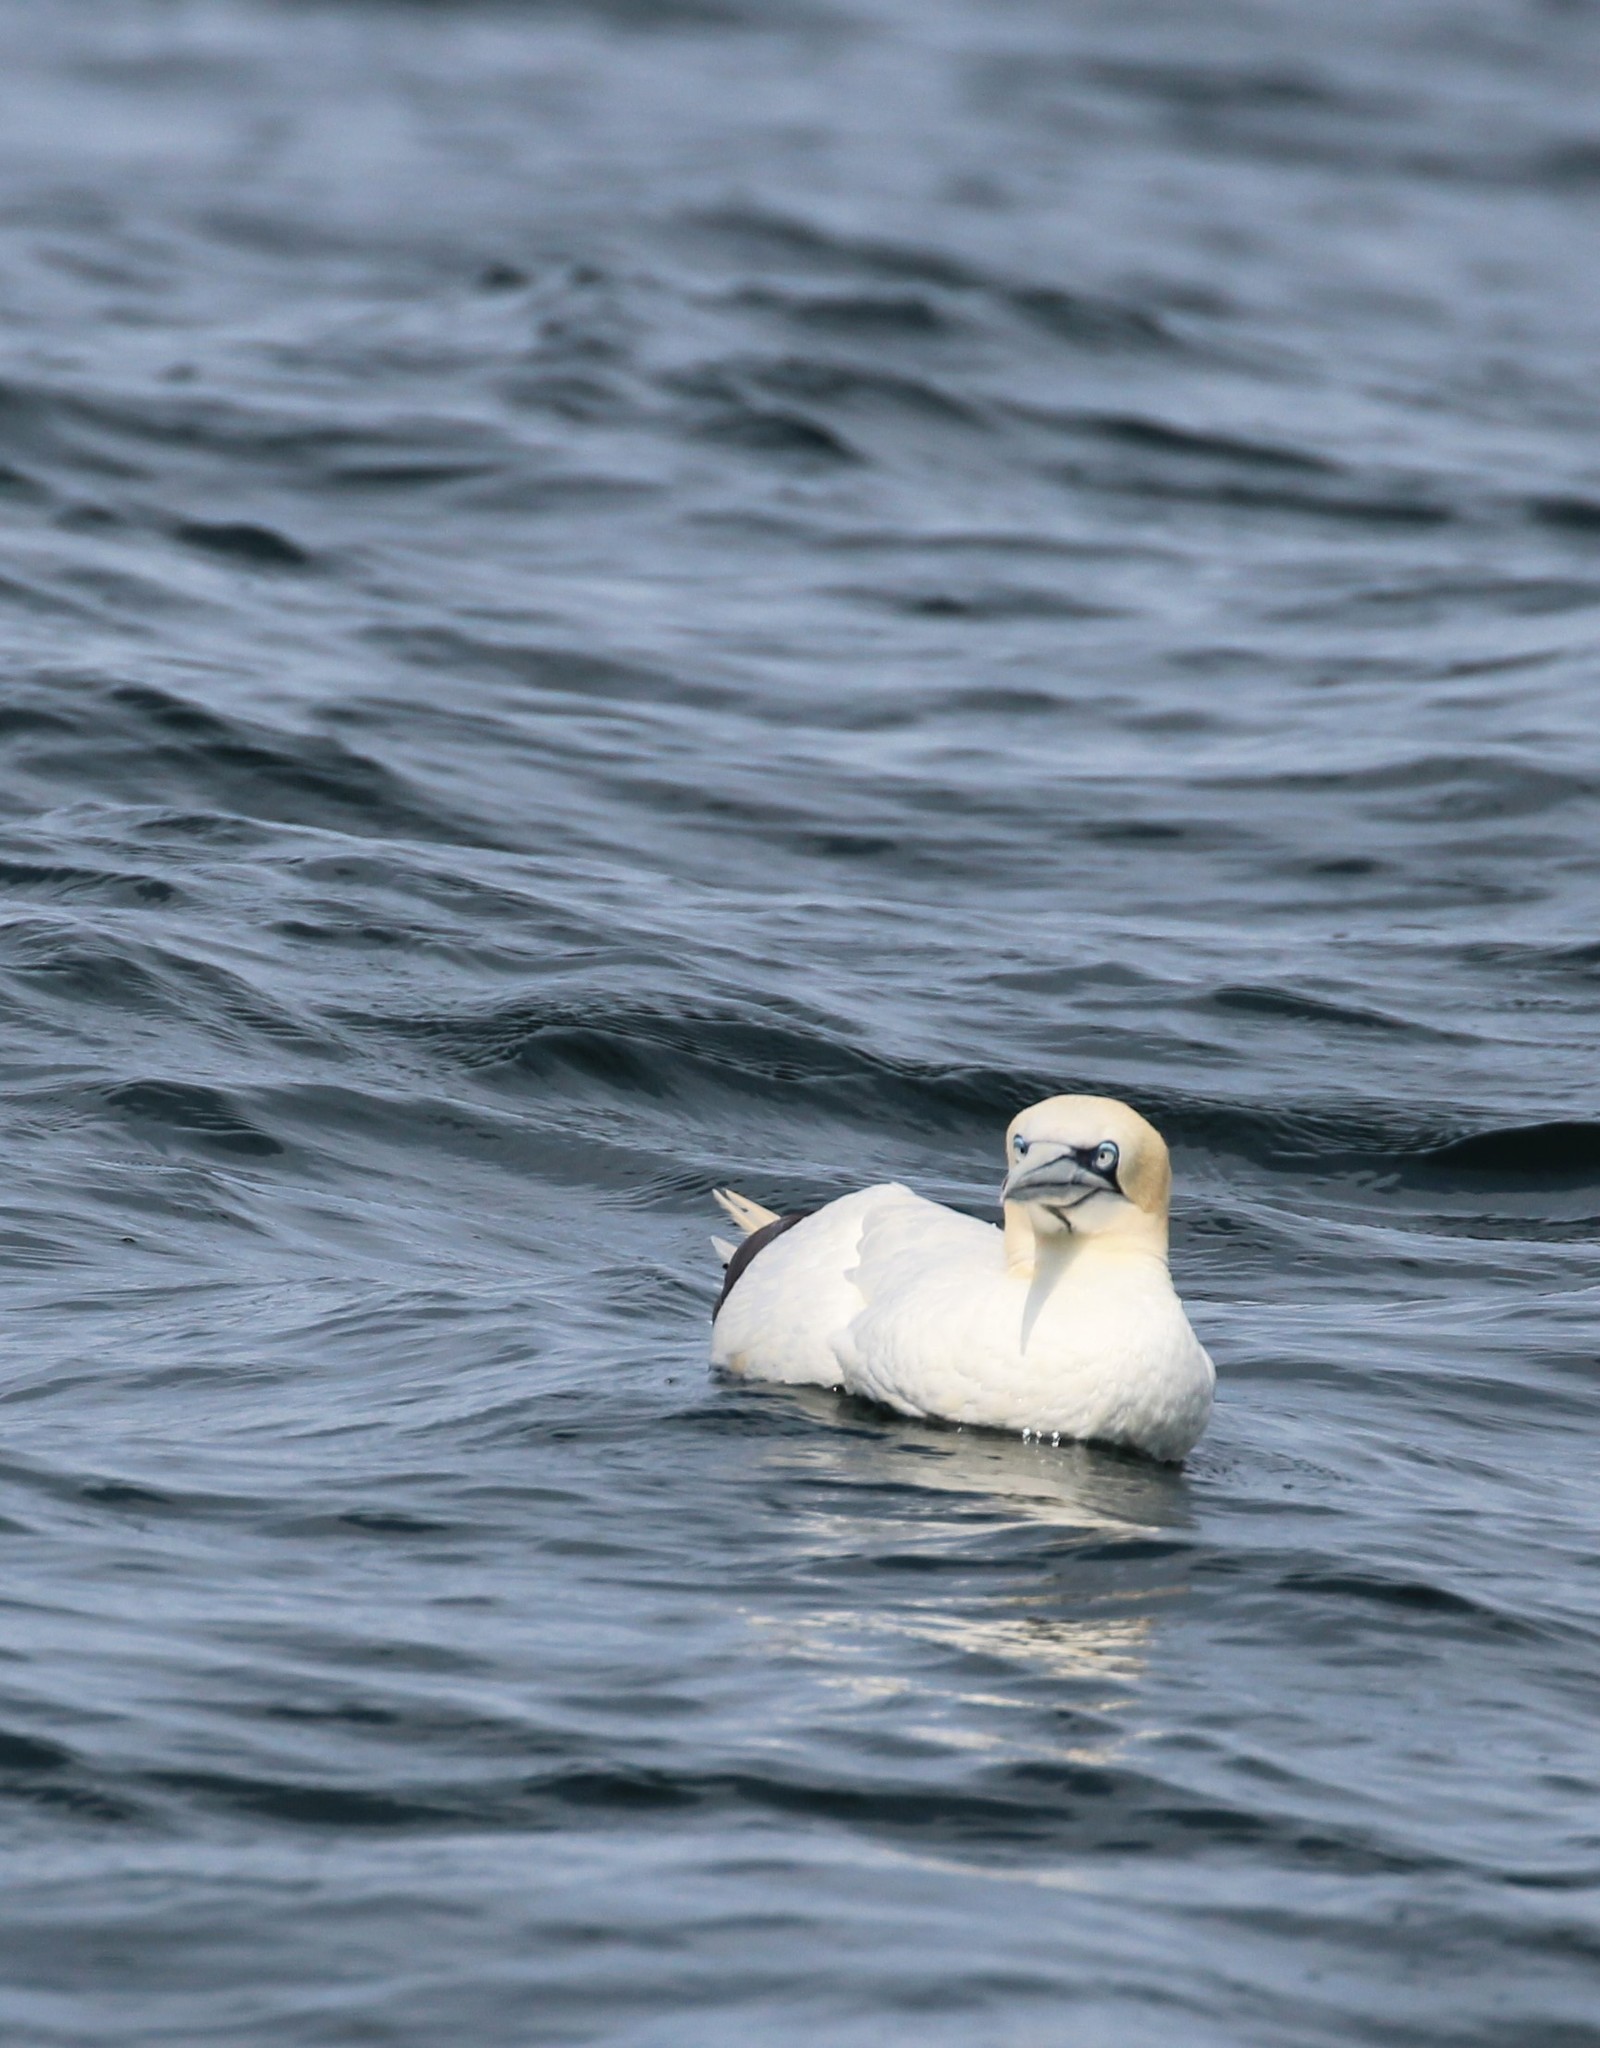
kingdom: Animalia
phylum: Chordata
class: Aves
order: Suliformes
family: Sulidae
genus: Morus
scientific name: Morus bassanus
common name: Northern gannet
